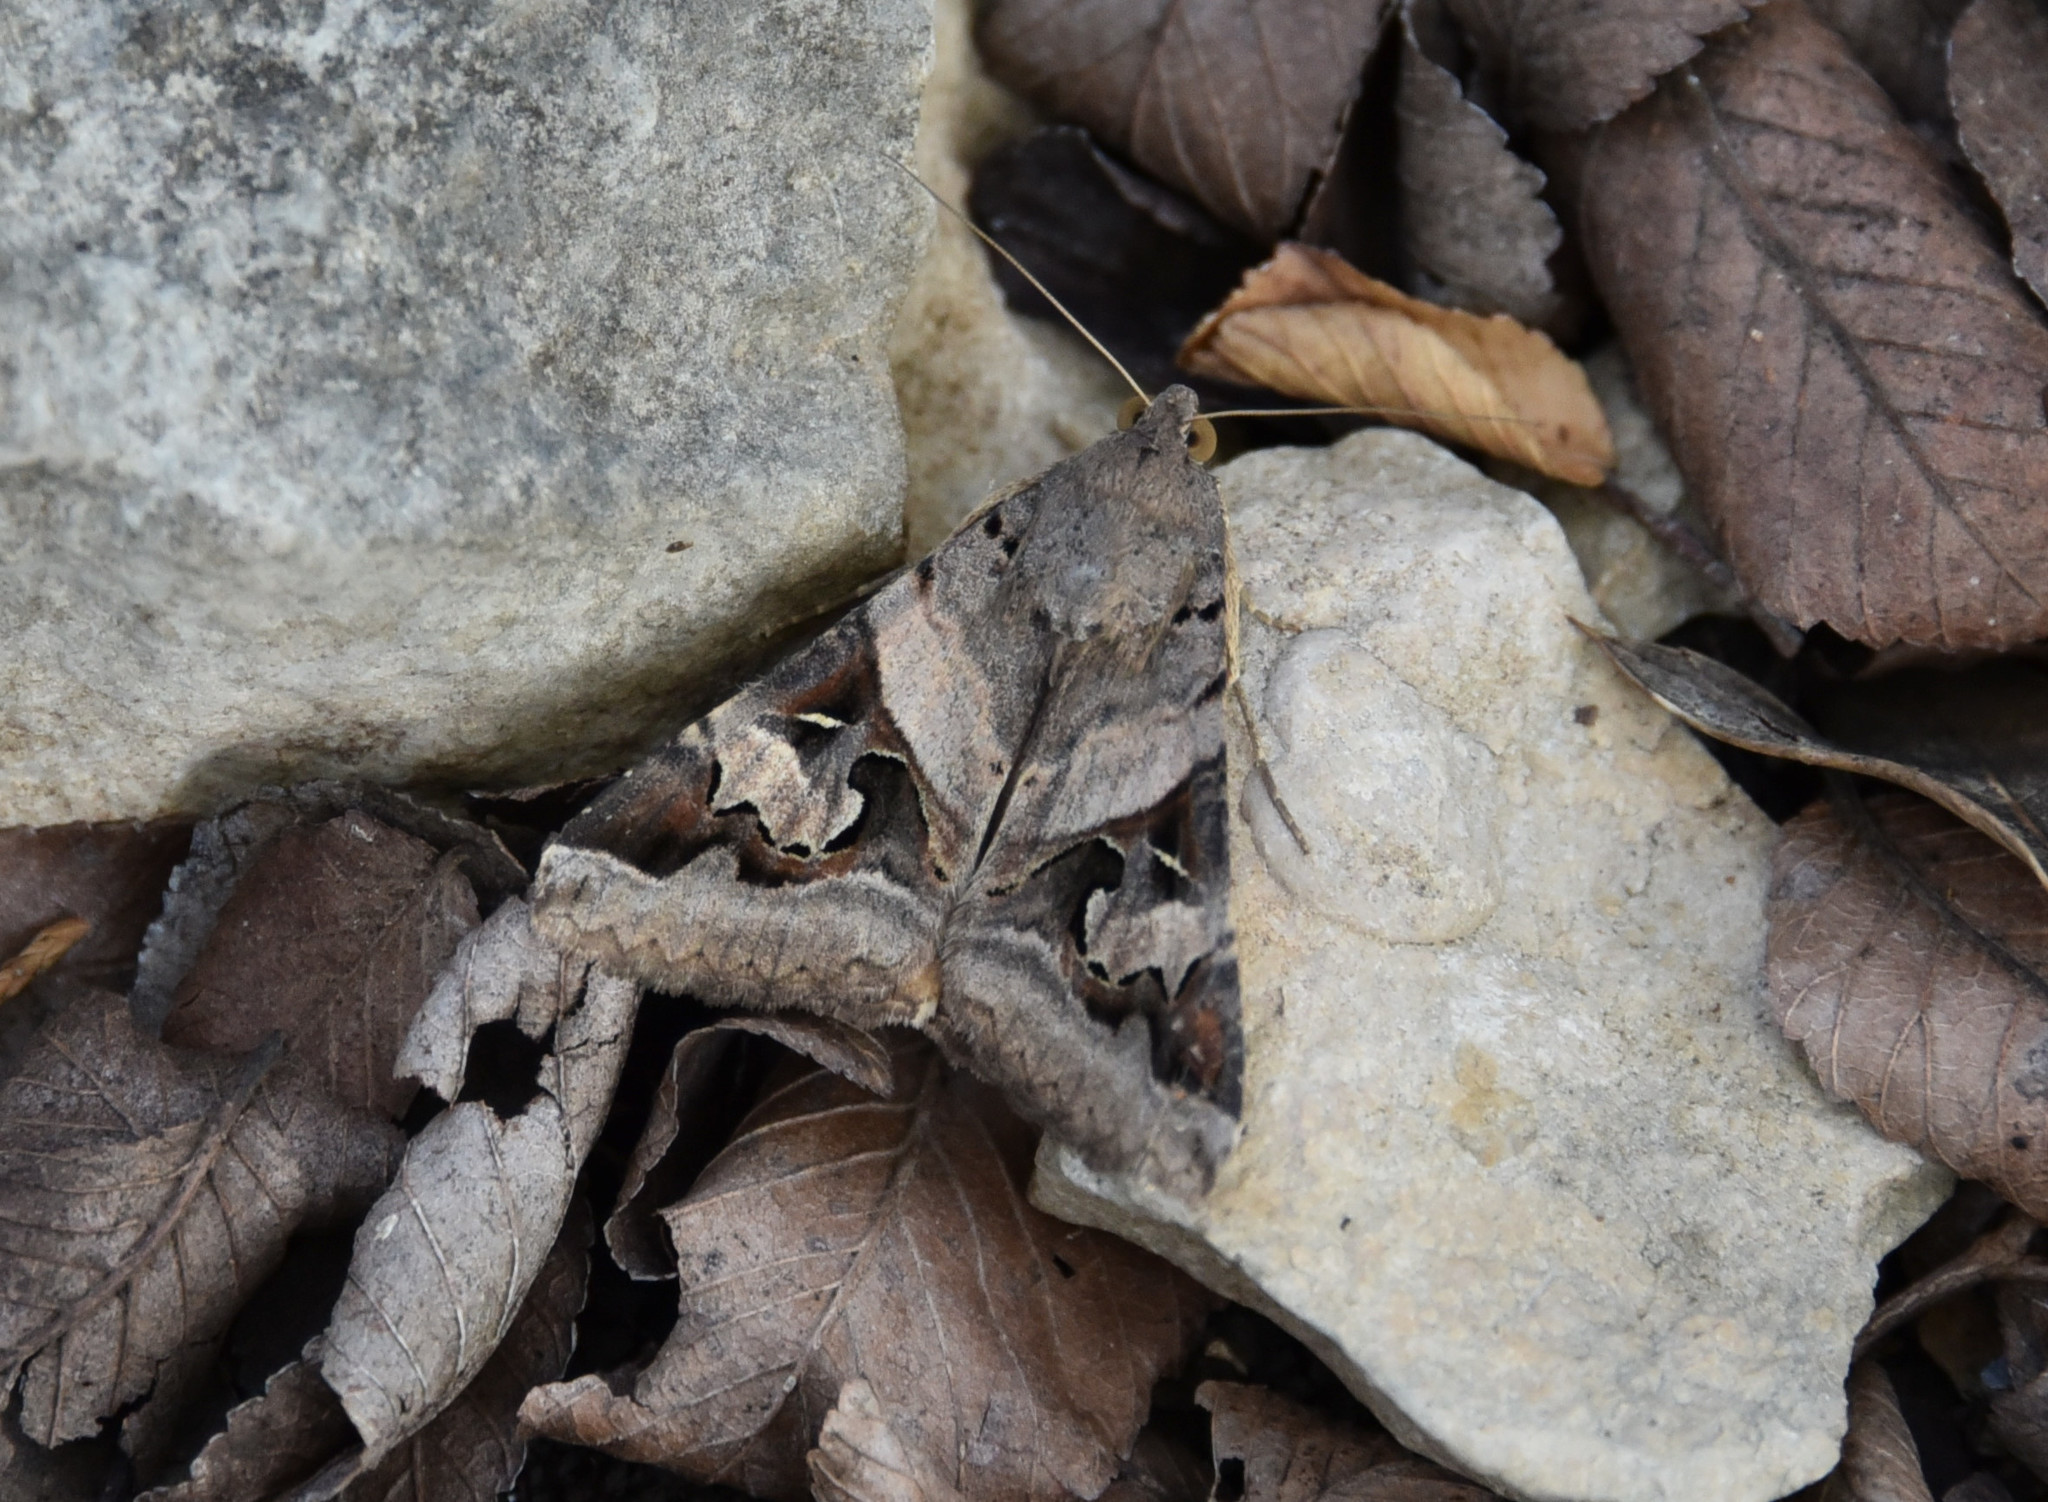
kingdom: Animalia
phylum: Arthropoda
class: Insecta
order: Lepidoptera
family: Erebidae
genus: Melipotis
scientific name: Melipotis indomita
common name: Moth
